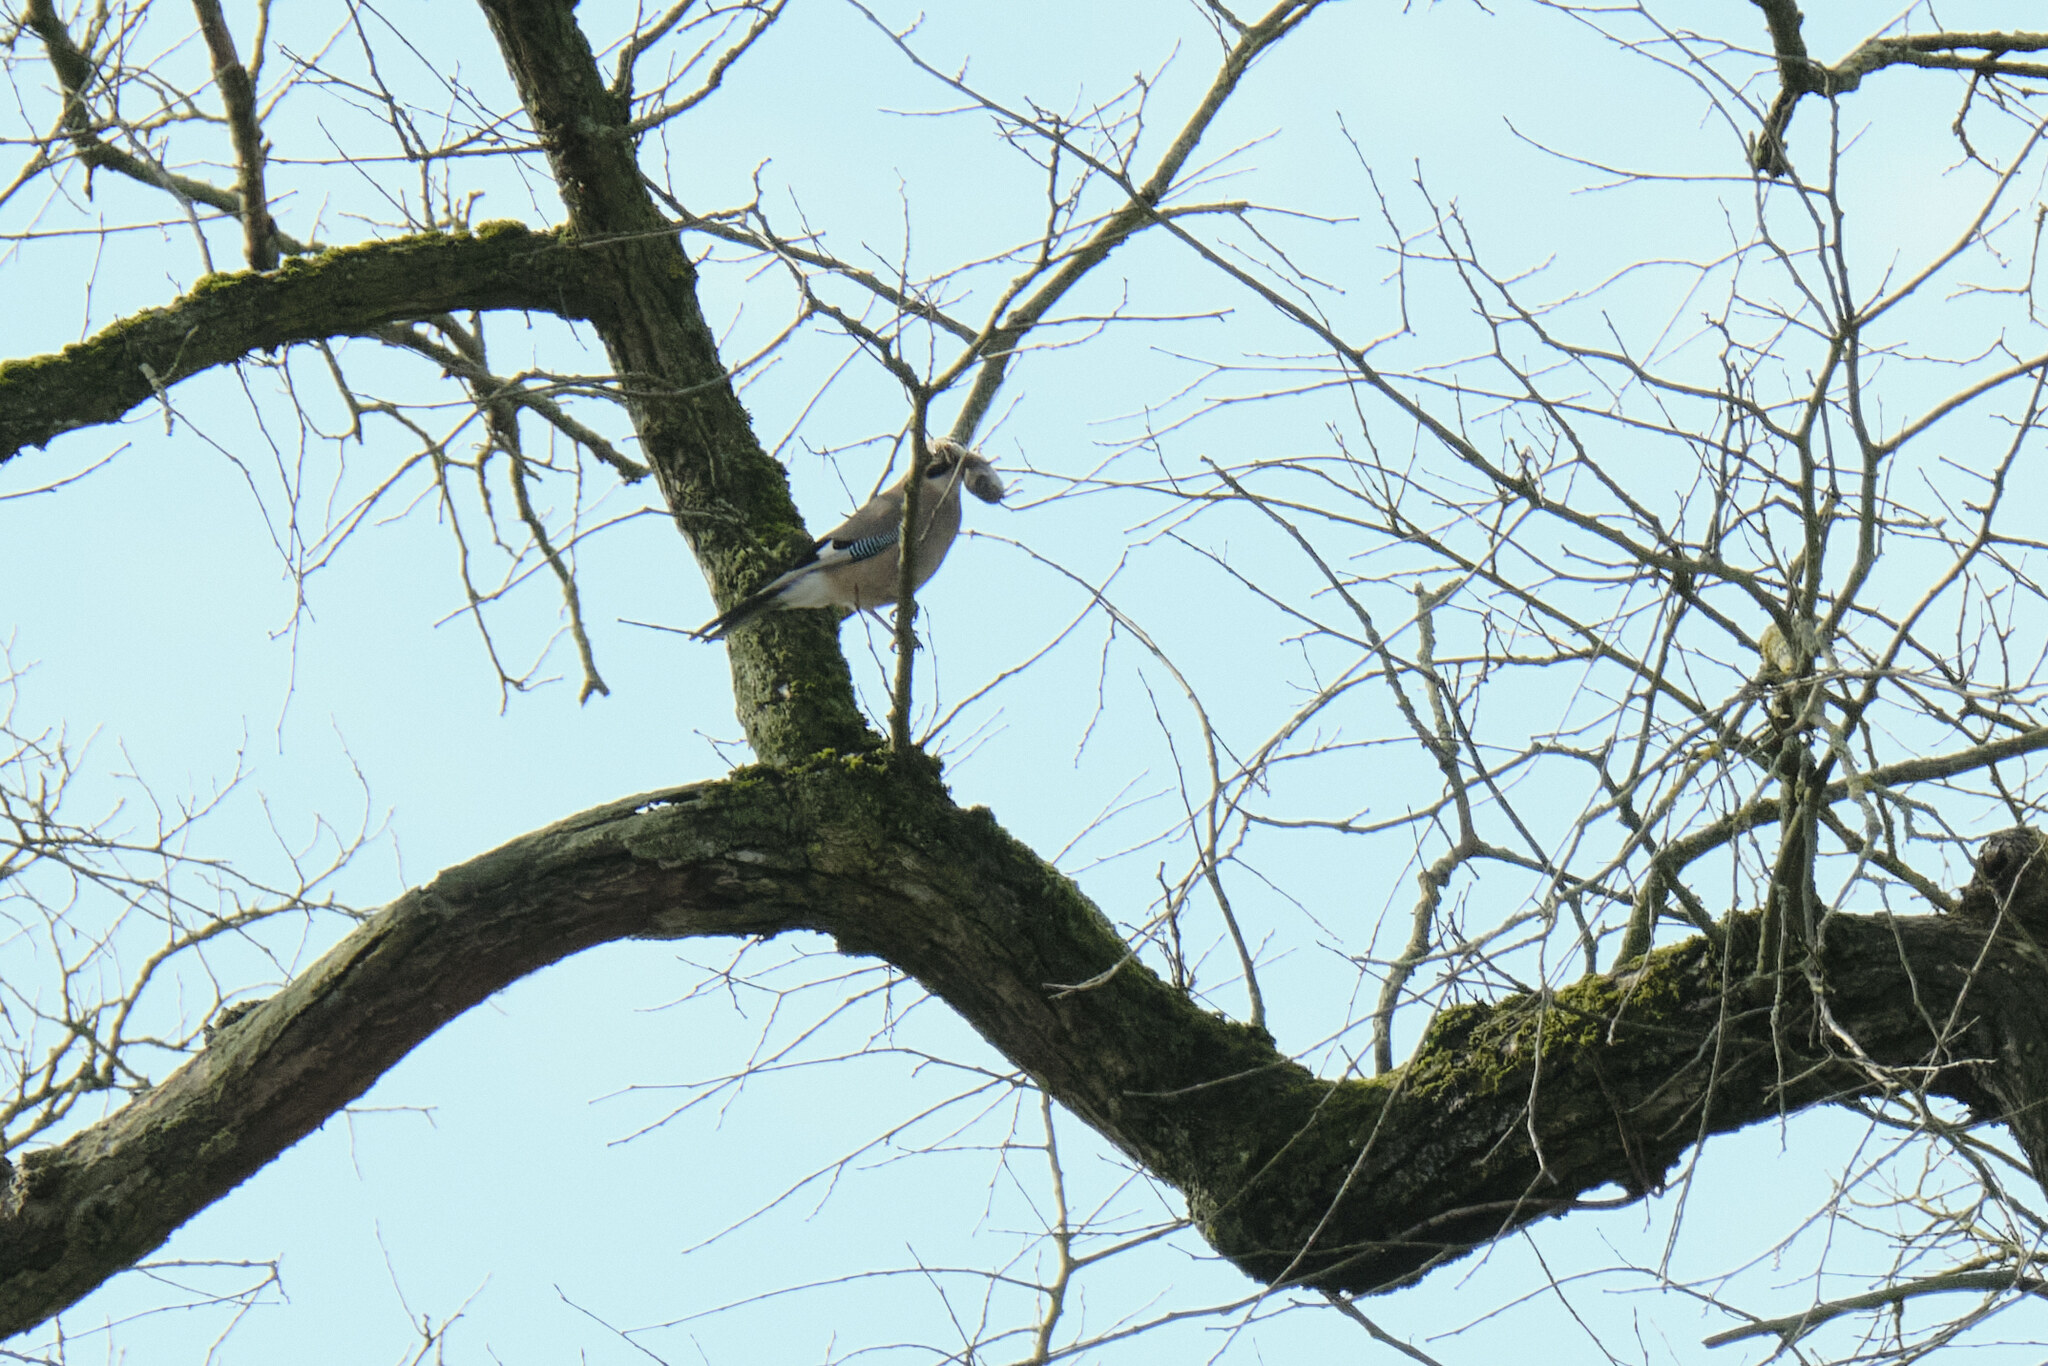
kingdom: Animalia
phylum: Chordata
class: Aves
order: Passeriformes
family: Corvidae
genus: Garrulus
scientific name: Garrulus glandarius
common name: Eurasian jay
